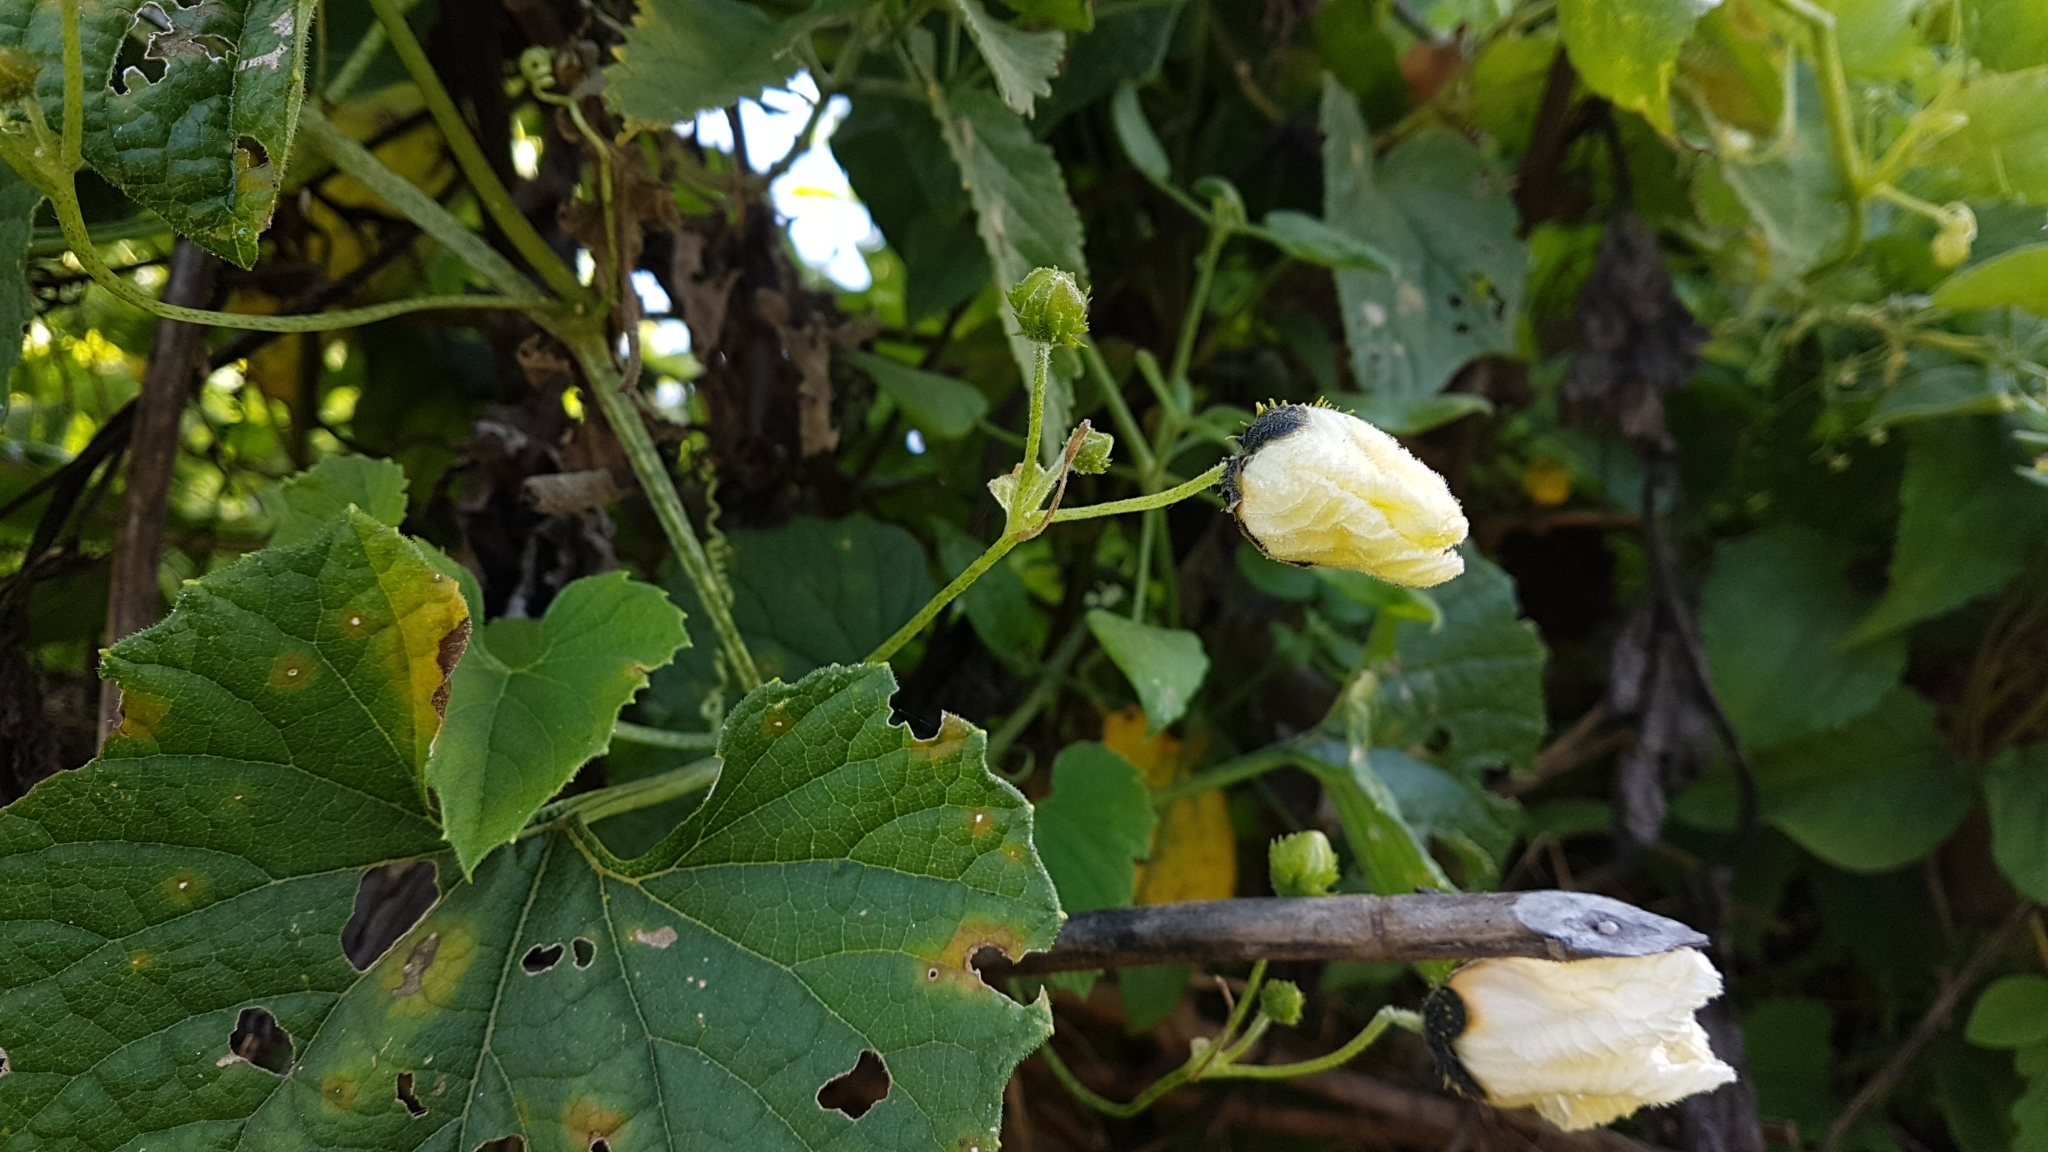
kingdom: Plantae
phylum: Tracheophyta
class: Magnoliopsida
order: Cucurbitales
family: Cucurbitaceae
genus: Momordica
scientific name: Momordica foetida
